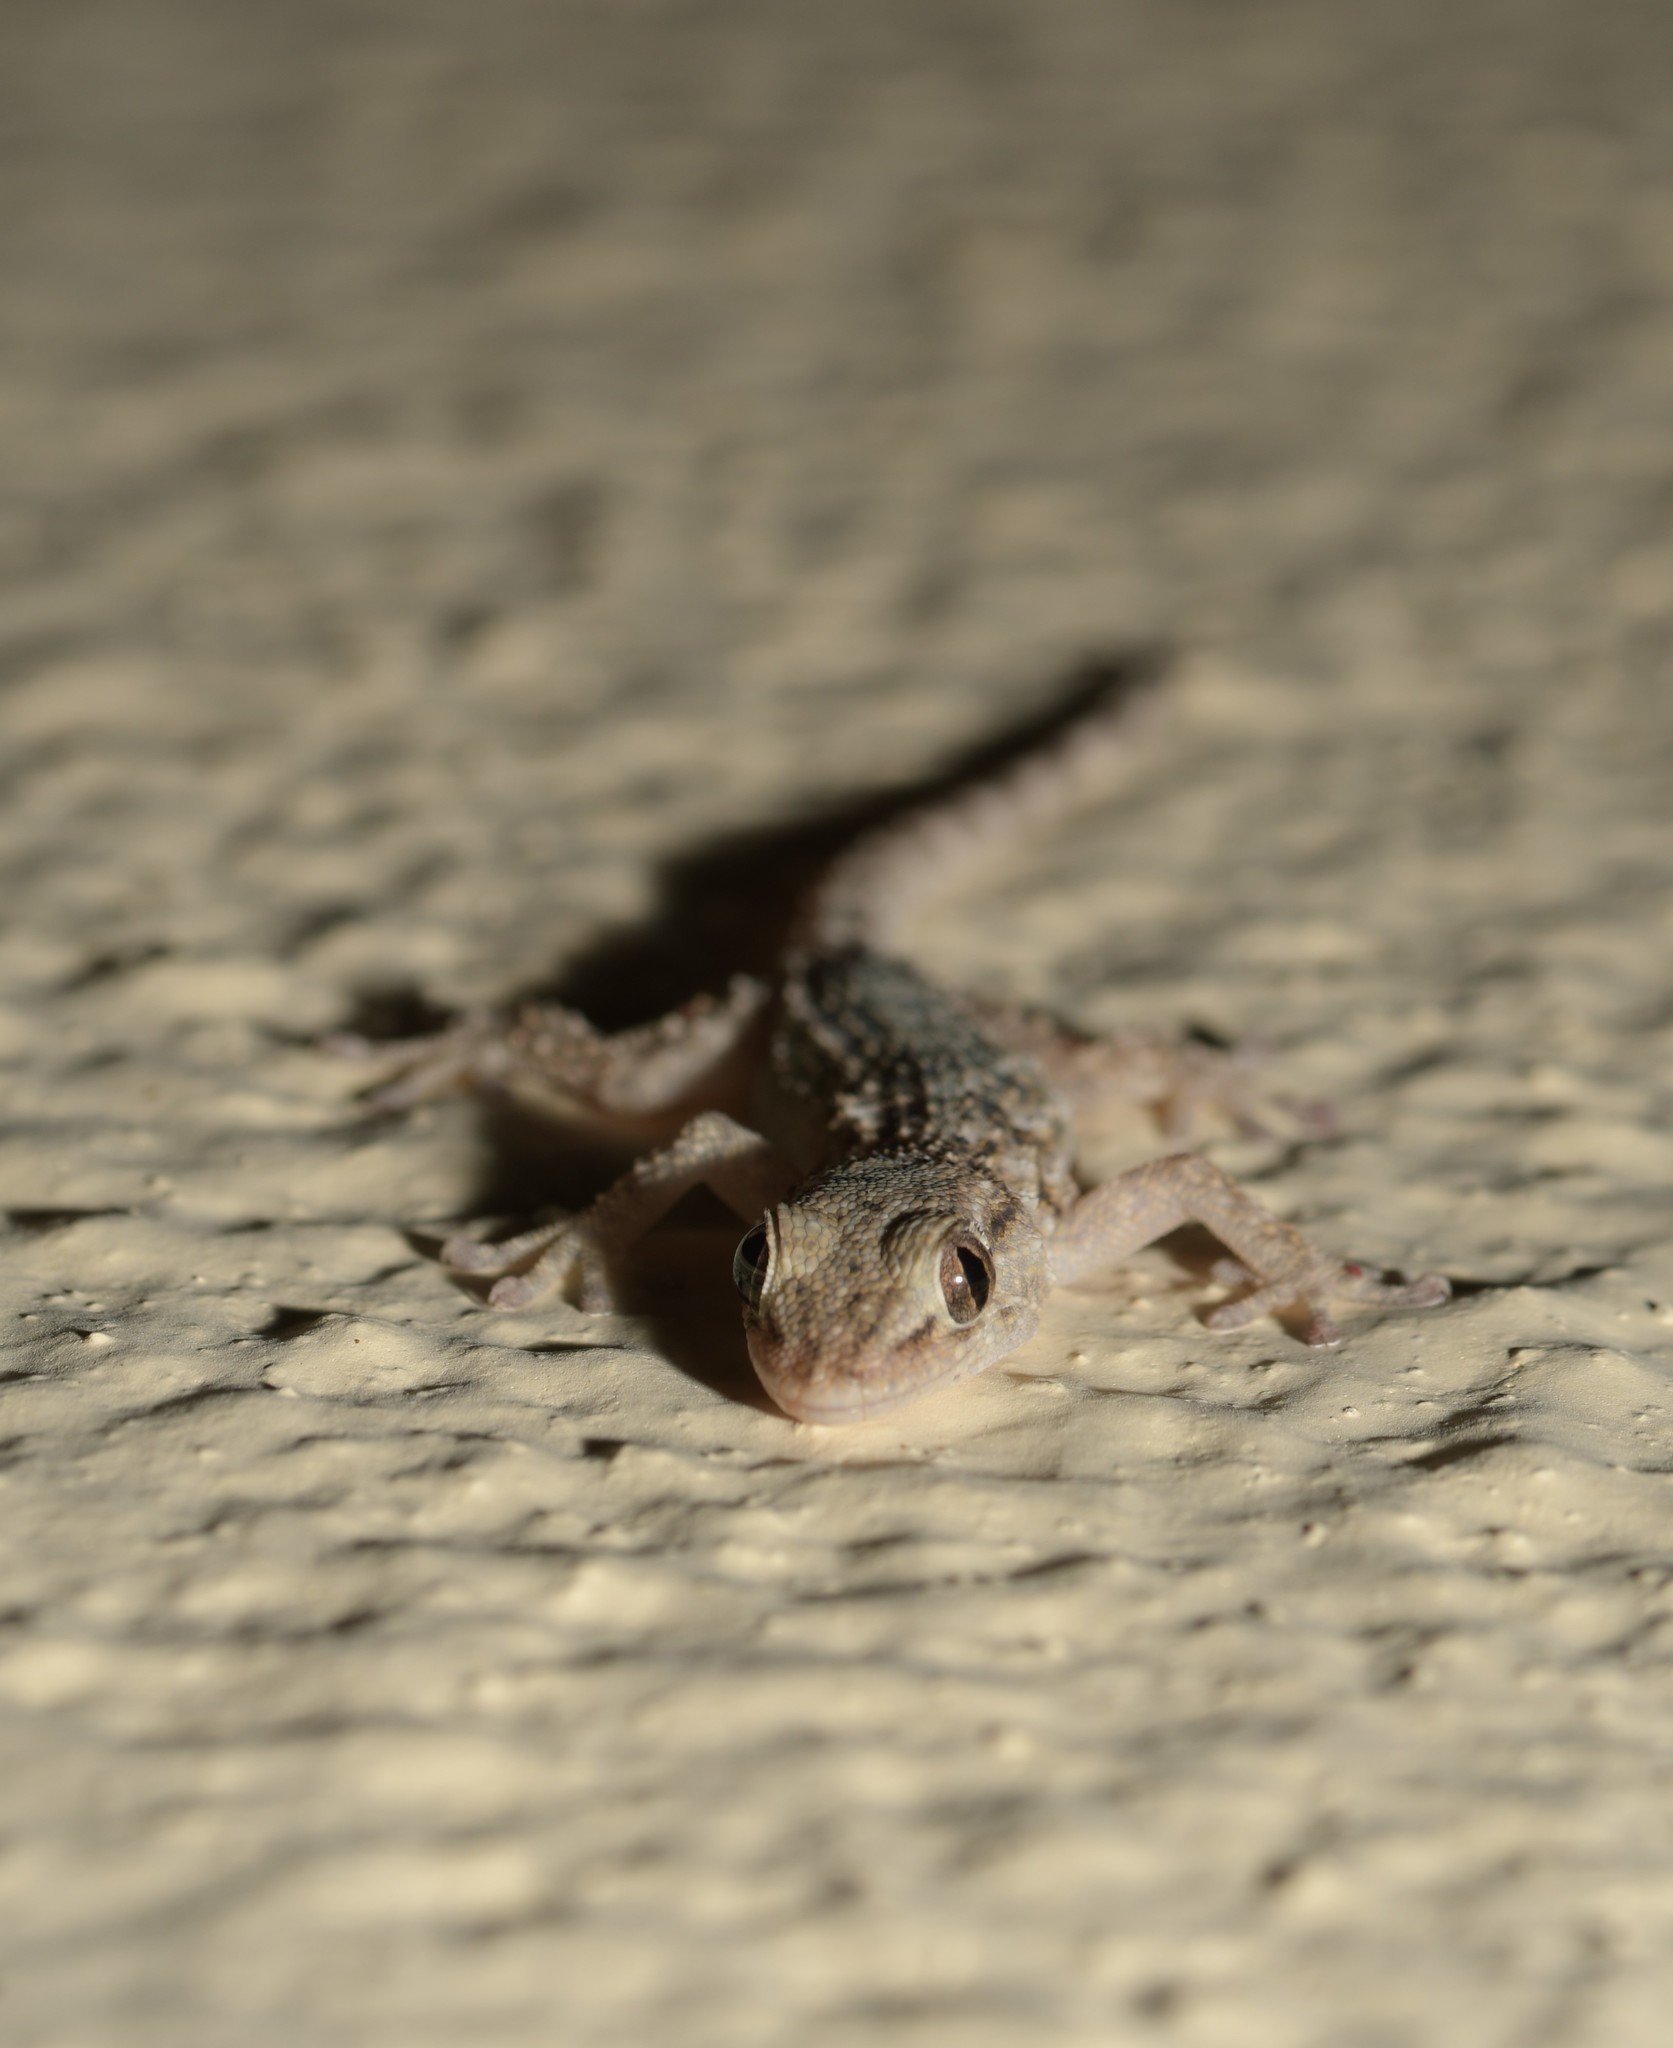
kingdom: Animalia
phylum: Chordata
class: Squamata
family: Phyllodactylidae
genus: Tarentola
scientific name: Tarentola mauritanica
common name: Moorish gecko
